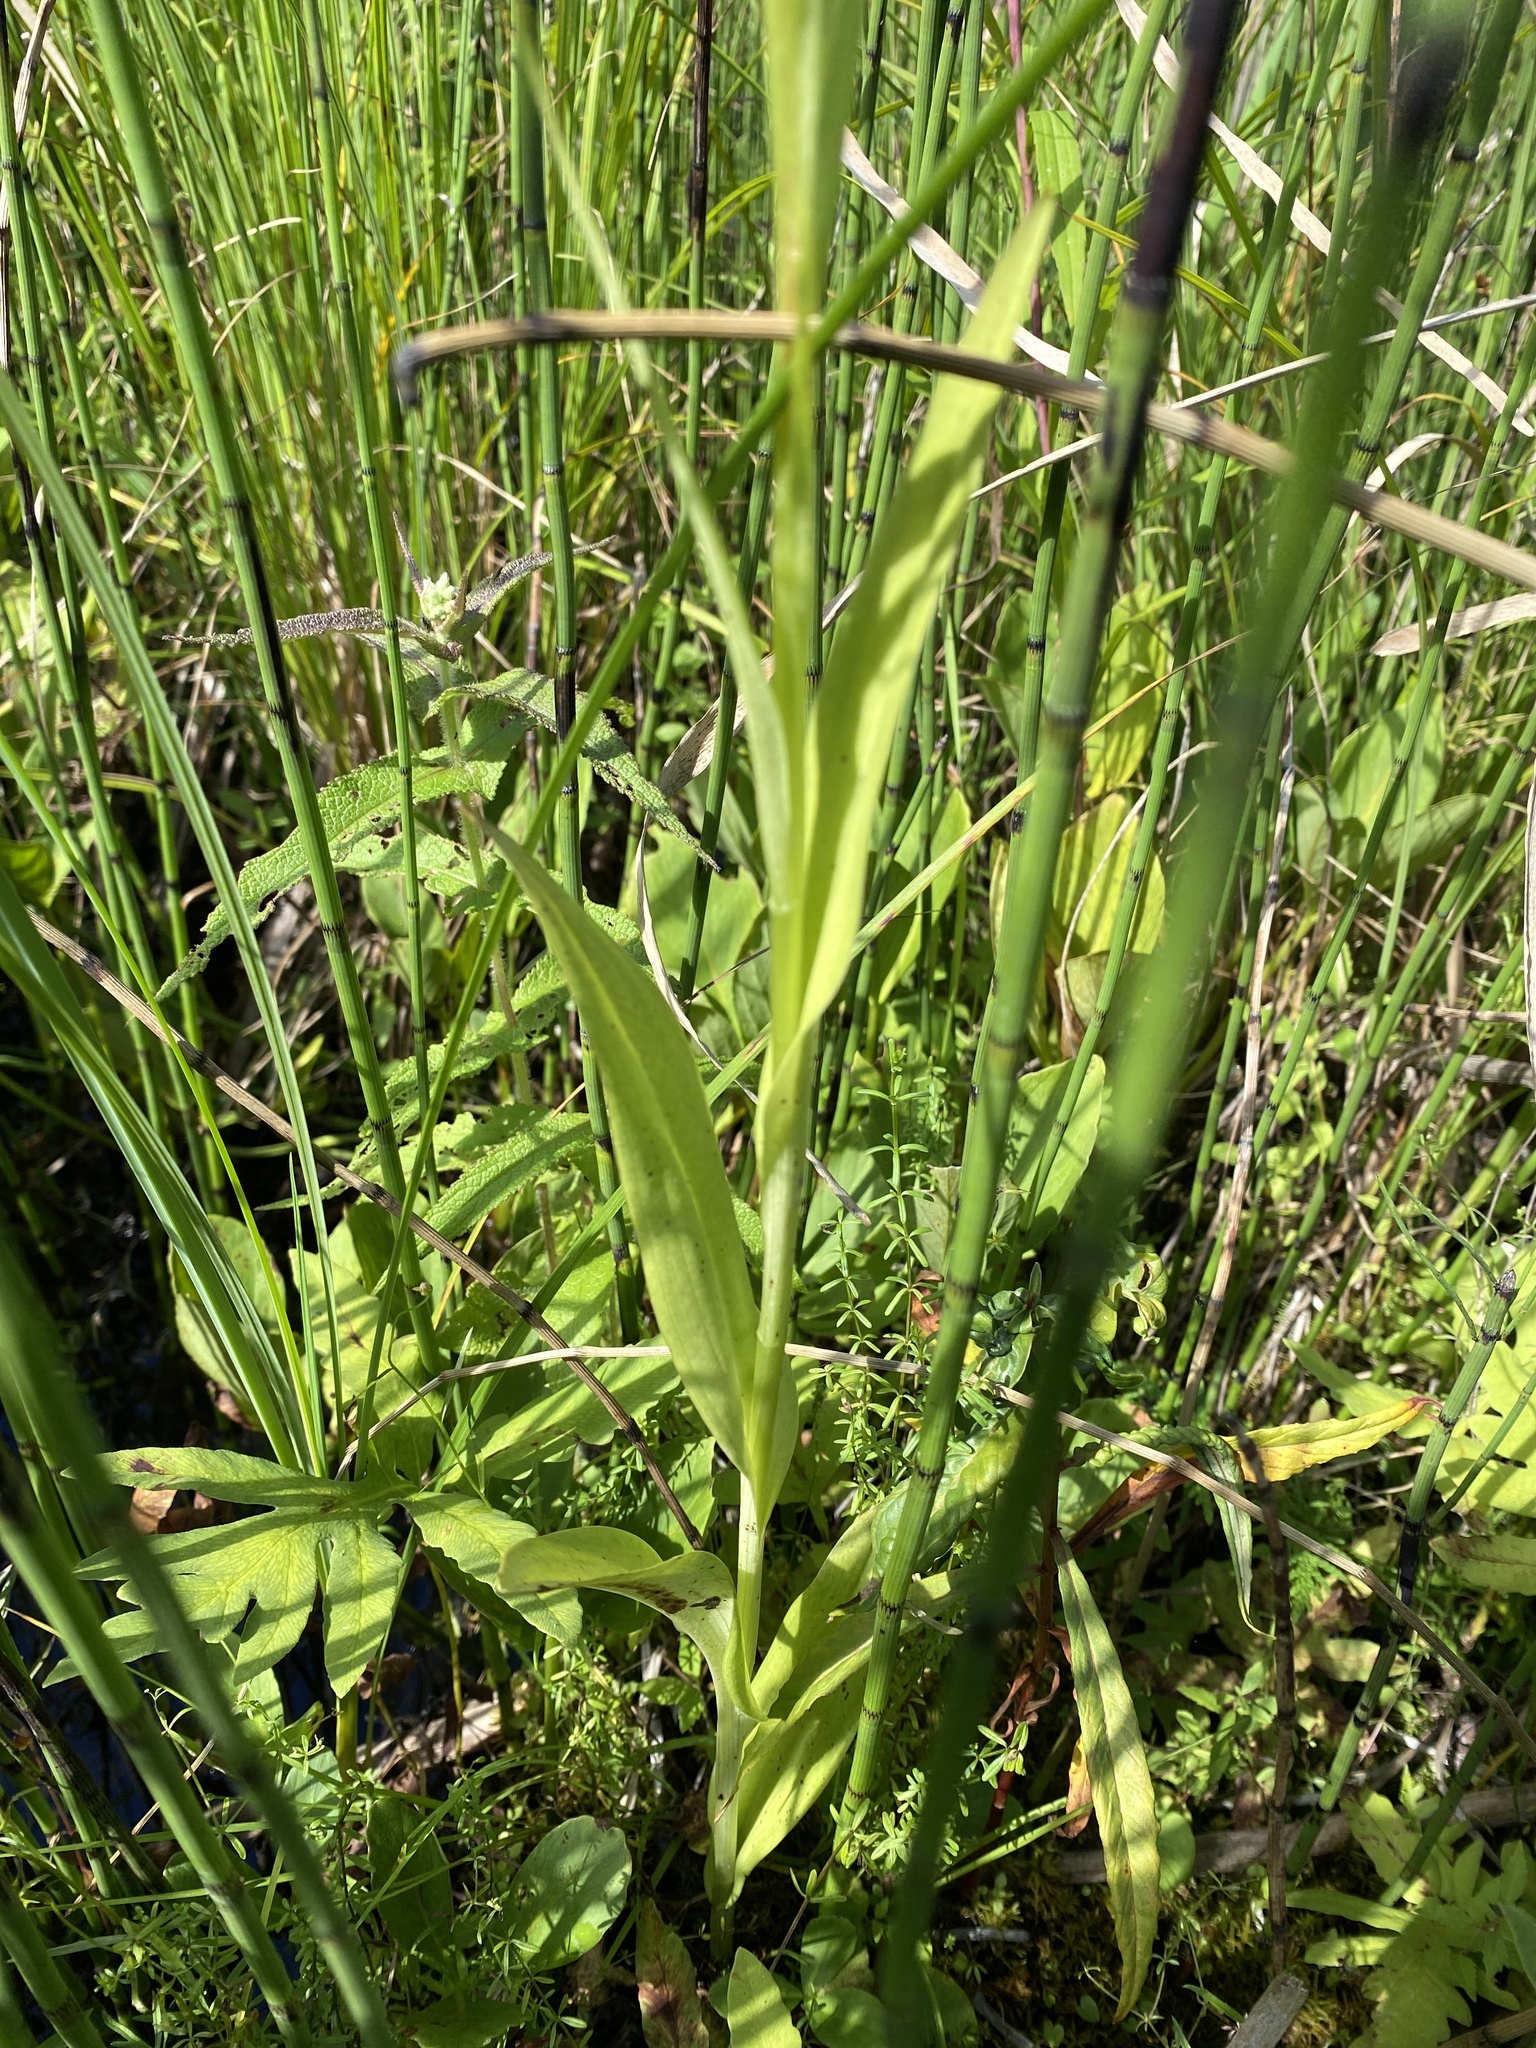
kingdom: Plantae
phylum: Tracheophyta
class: Liliopsida
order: Asparagales
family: Orchidaceae
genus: Platanthera
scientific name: Platanthera psycodes
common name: Lesser purple fringed orchid
